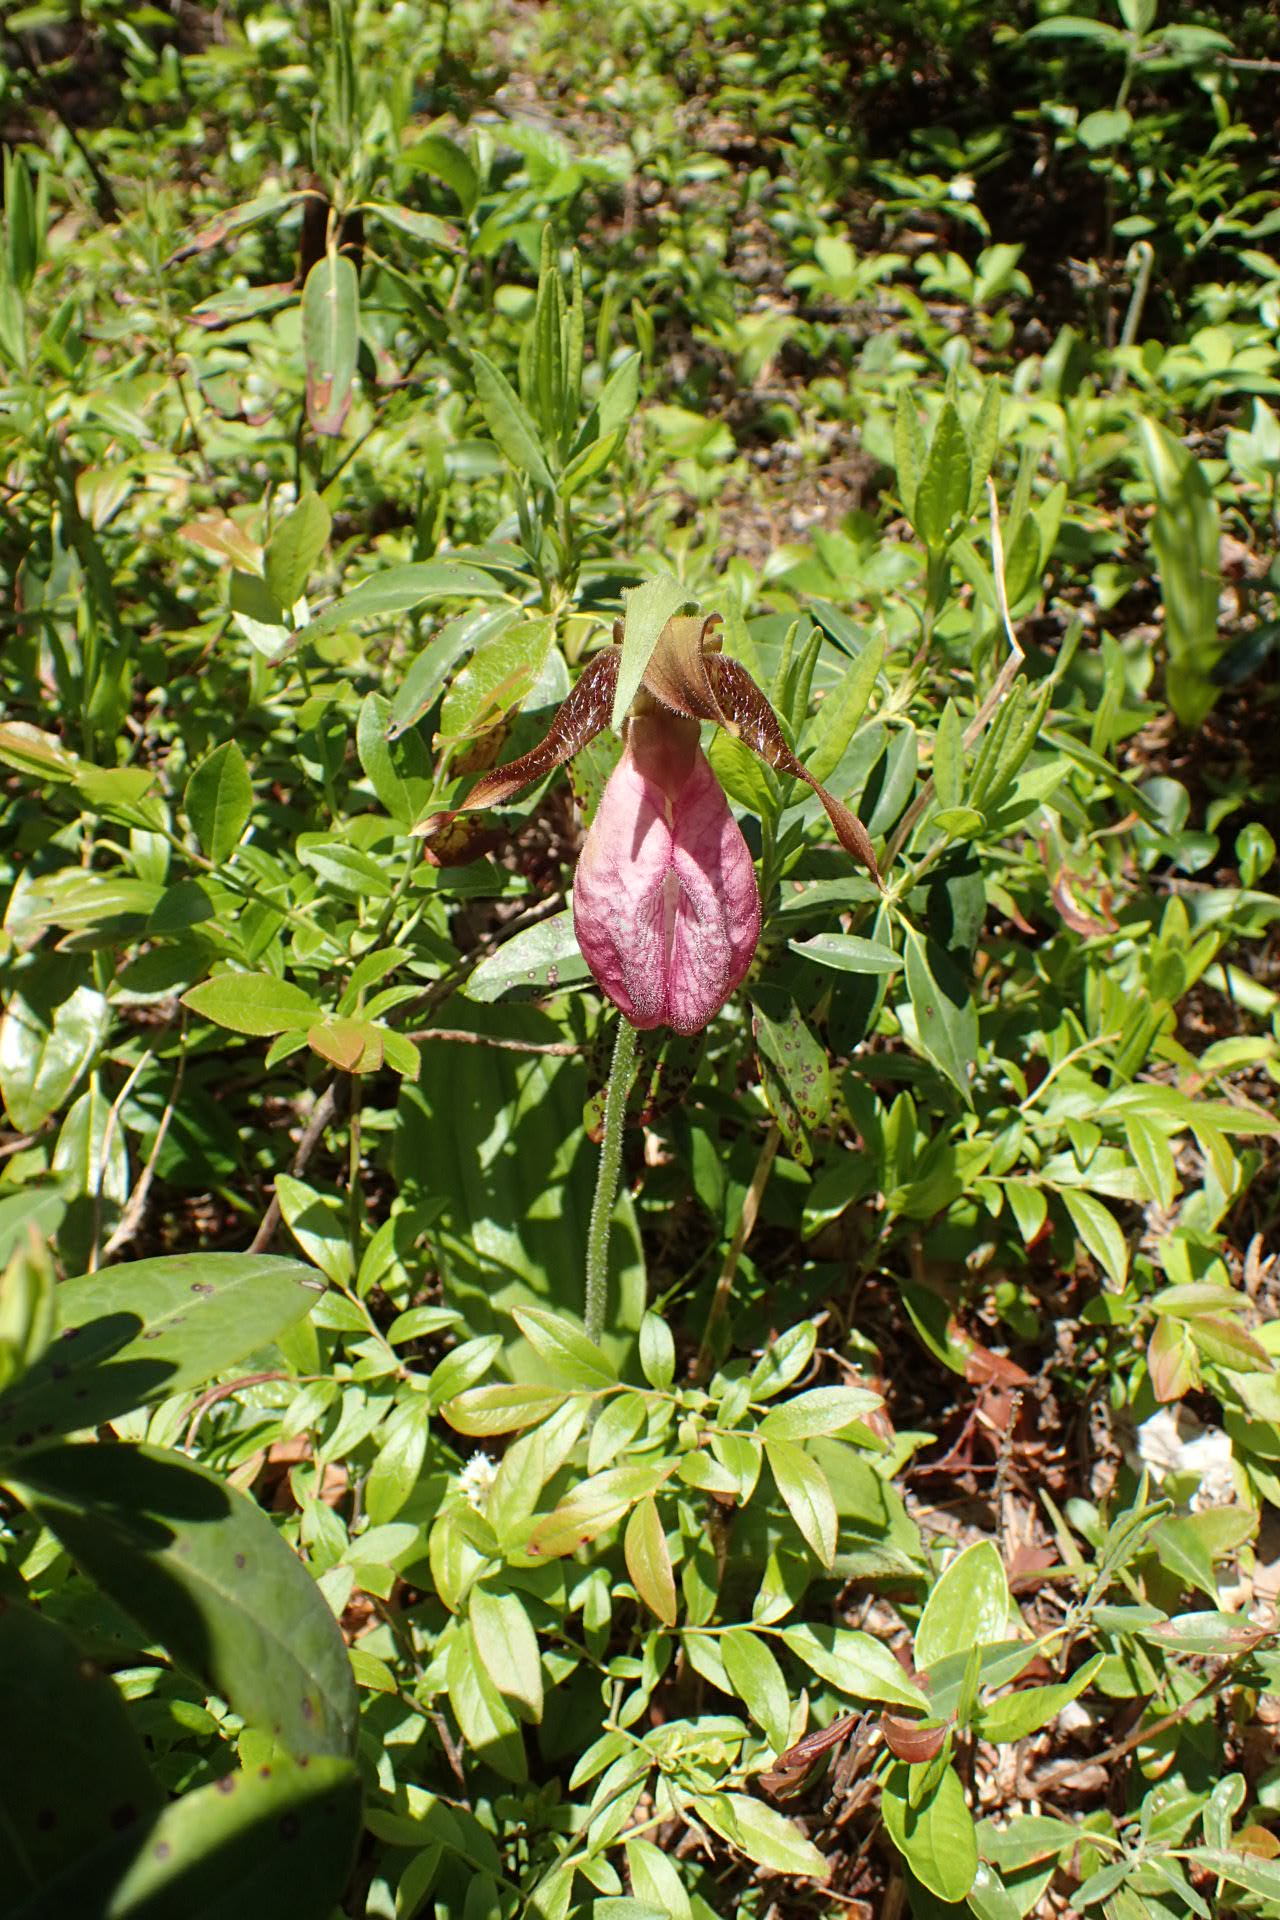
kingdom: Plantae
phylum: Tracheophyta
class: Liliopsida
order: Asparagales
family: Orchidaceae
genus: Cypripedium
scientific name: Cypripedium acaule
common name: Pink lady's-slipper
